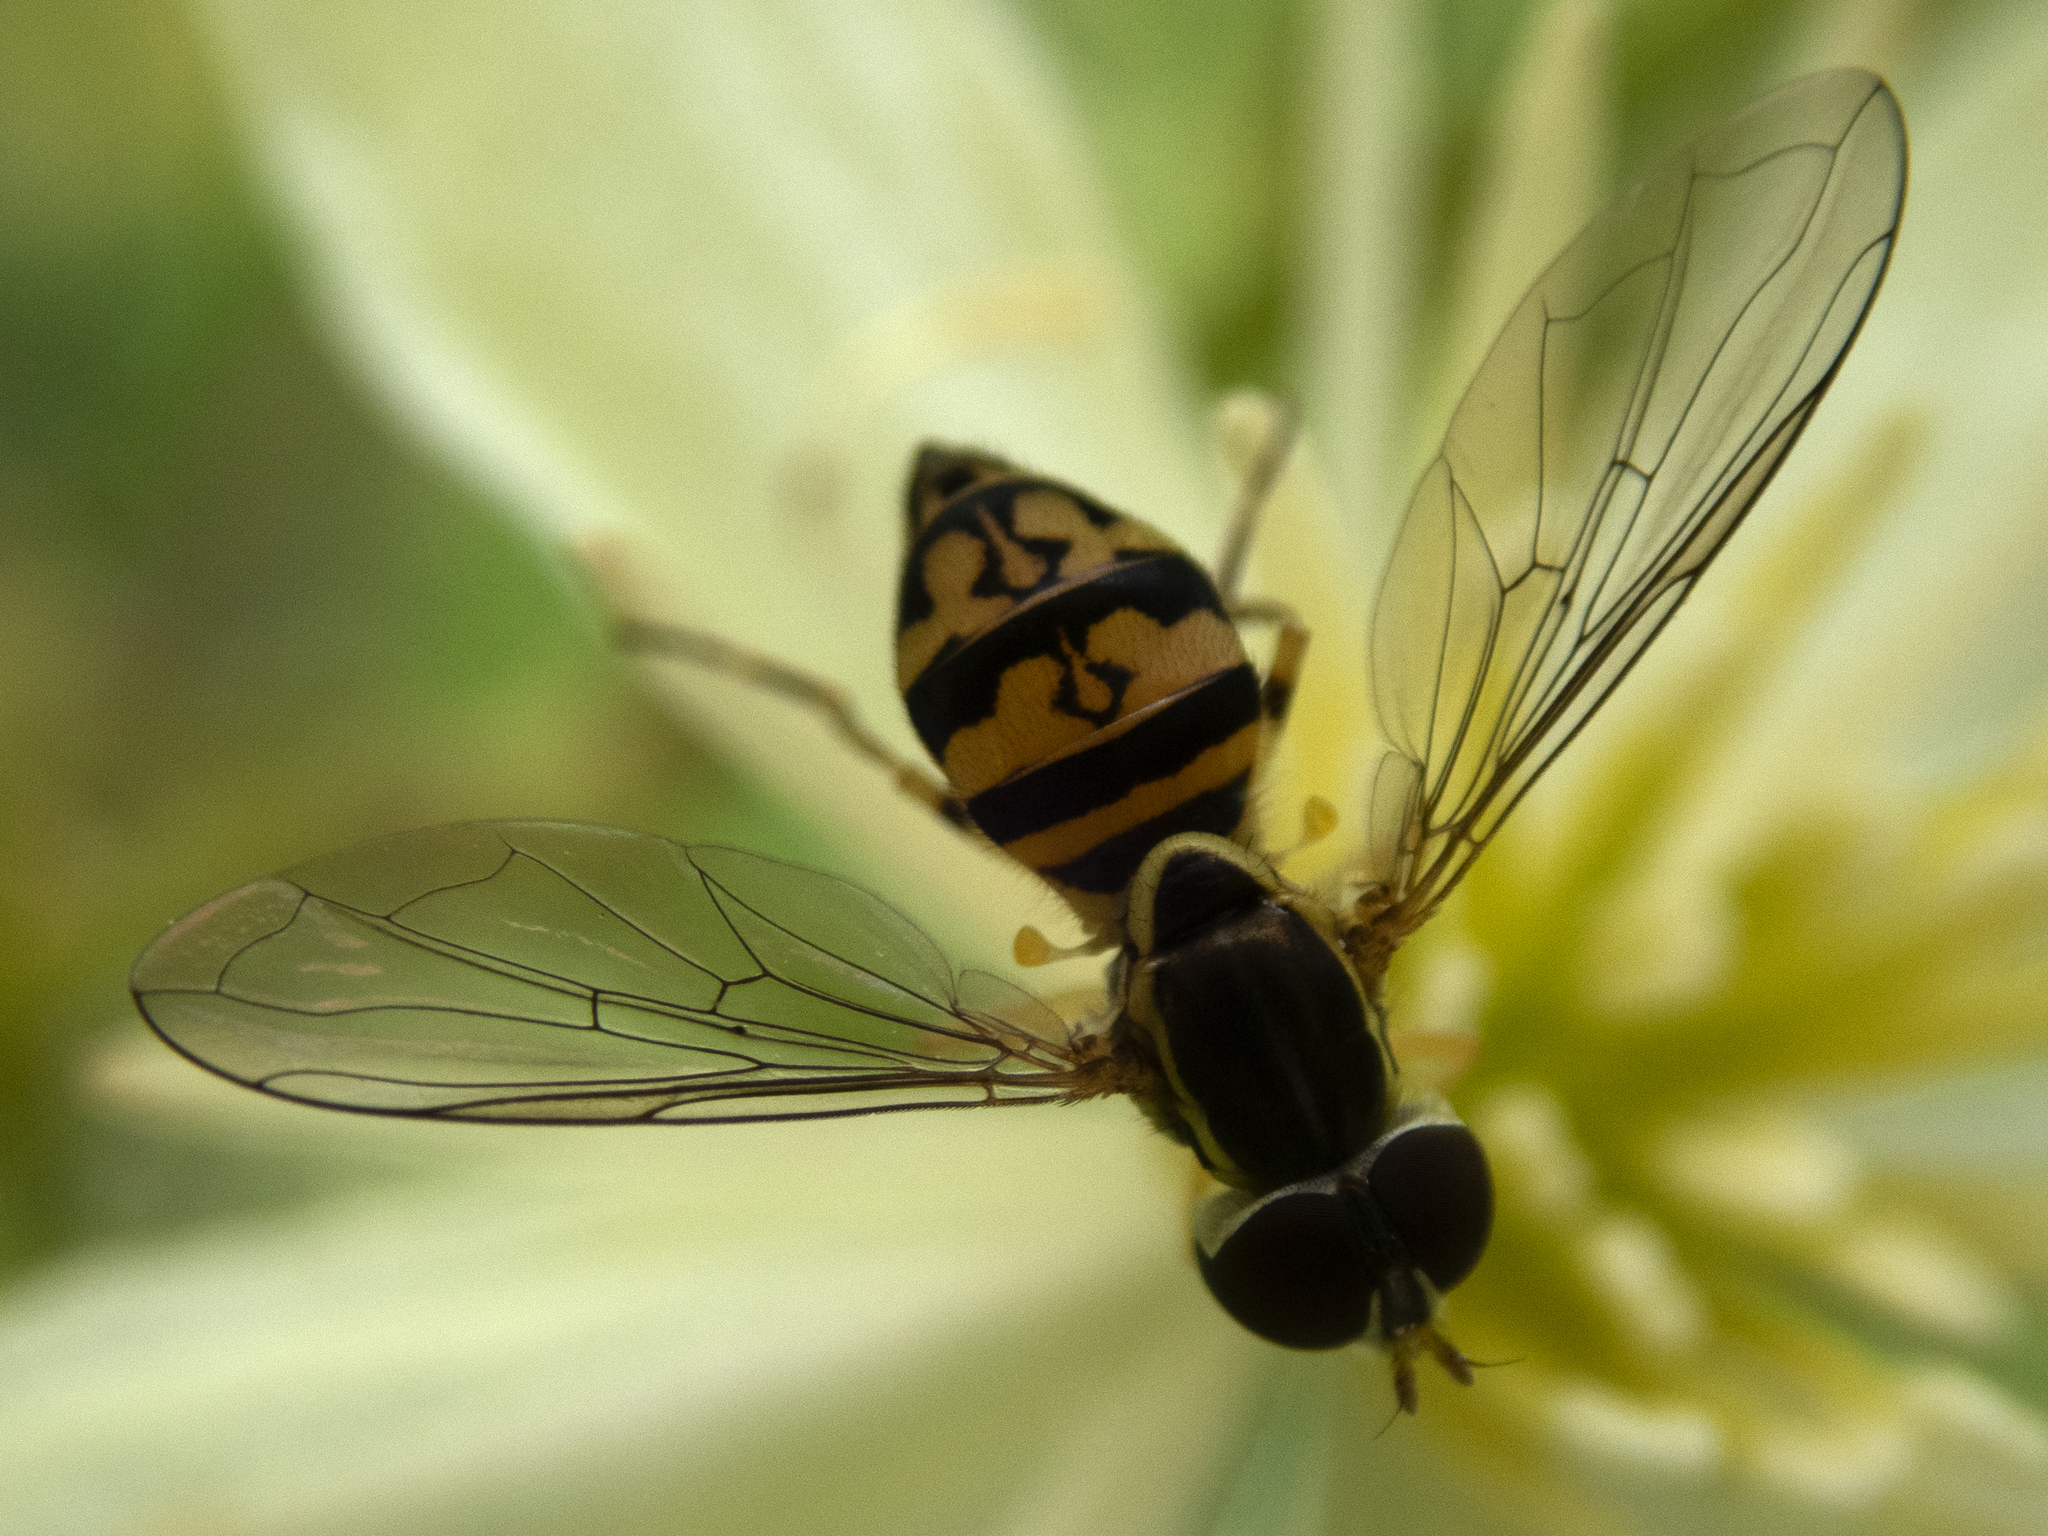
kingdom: Animalia
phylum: Arthropoda
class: Insecta
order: Diptera
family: Syrphidae
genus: Toxomerus
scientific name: Toxomerus geminatus
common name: Eastern calligrapher
